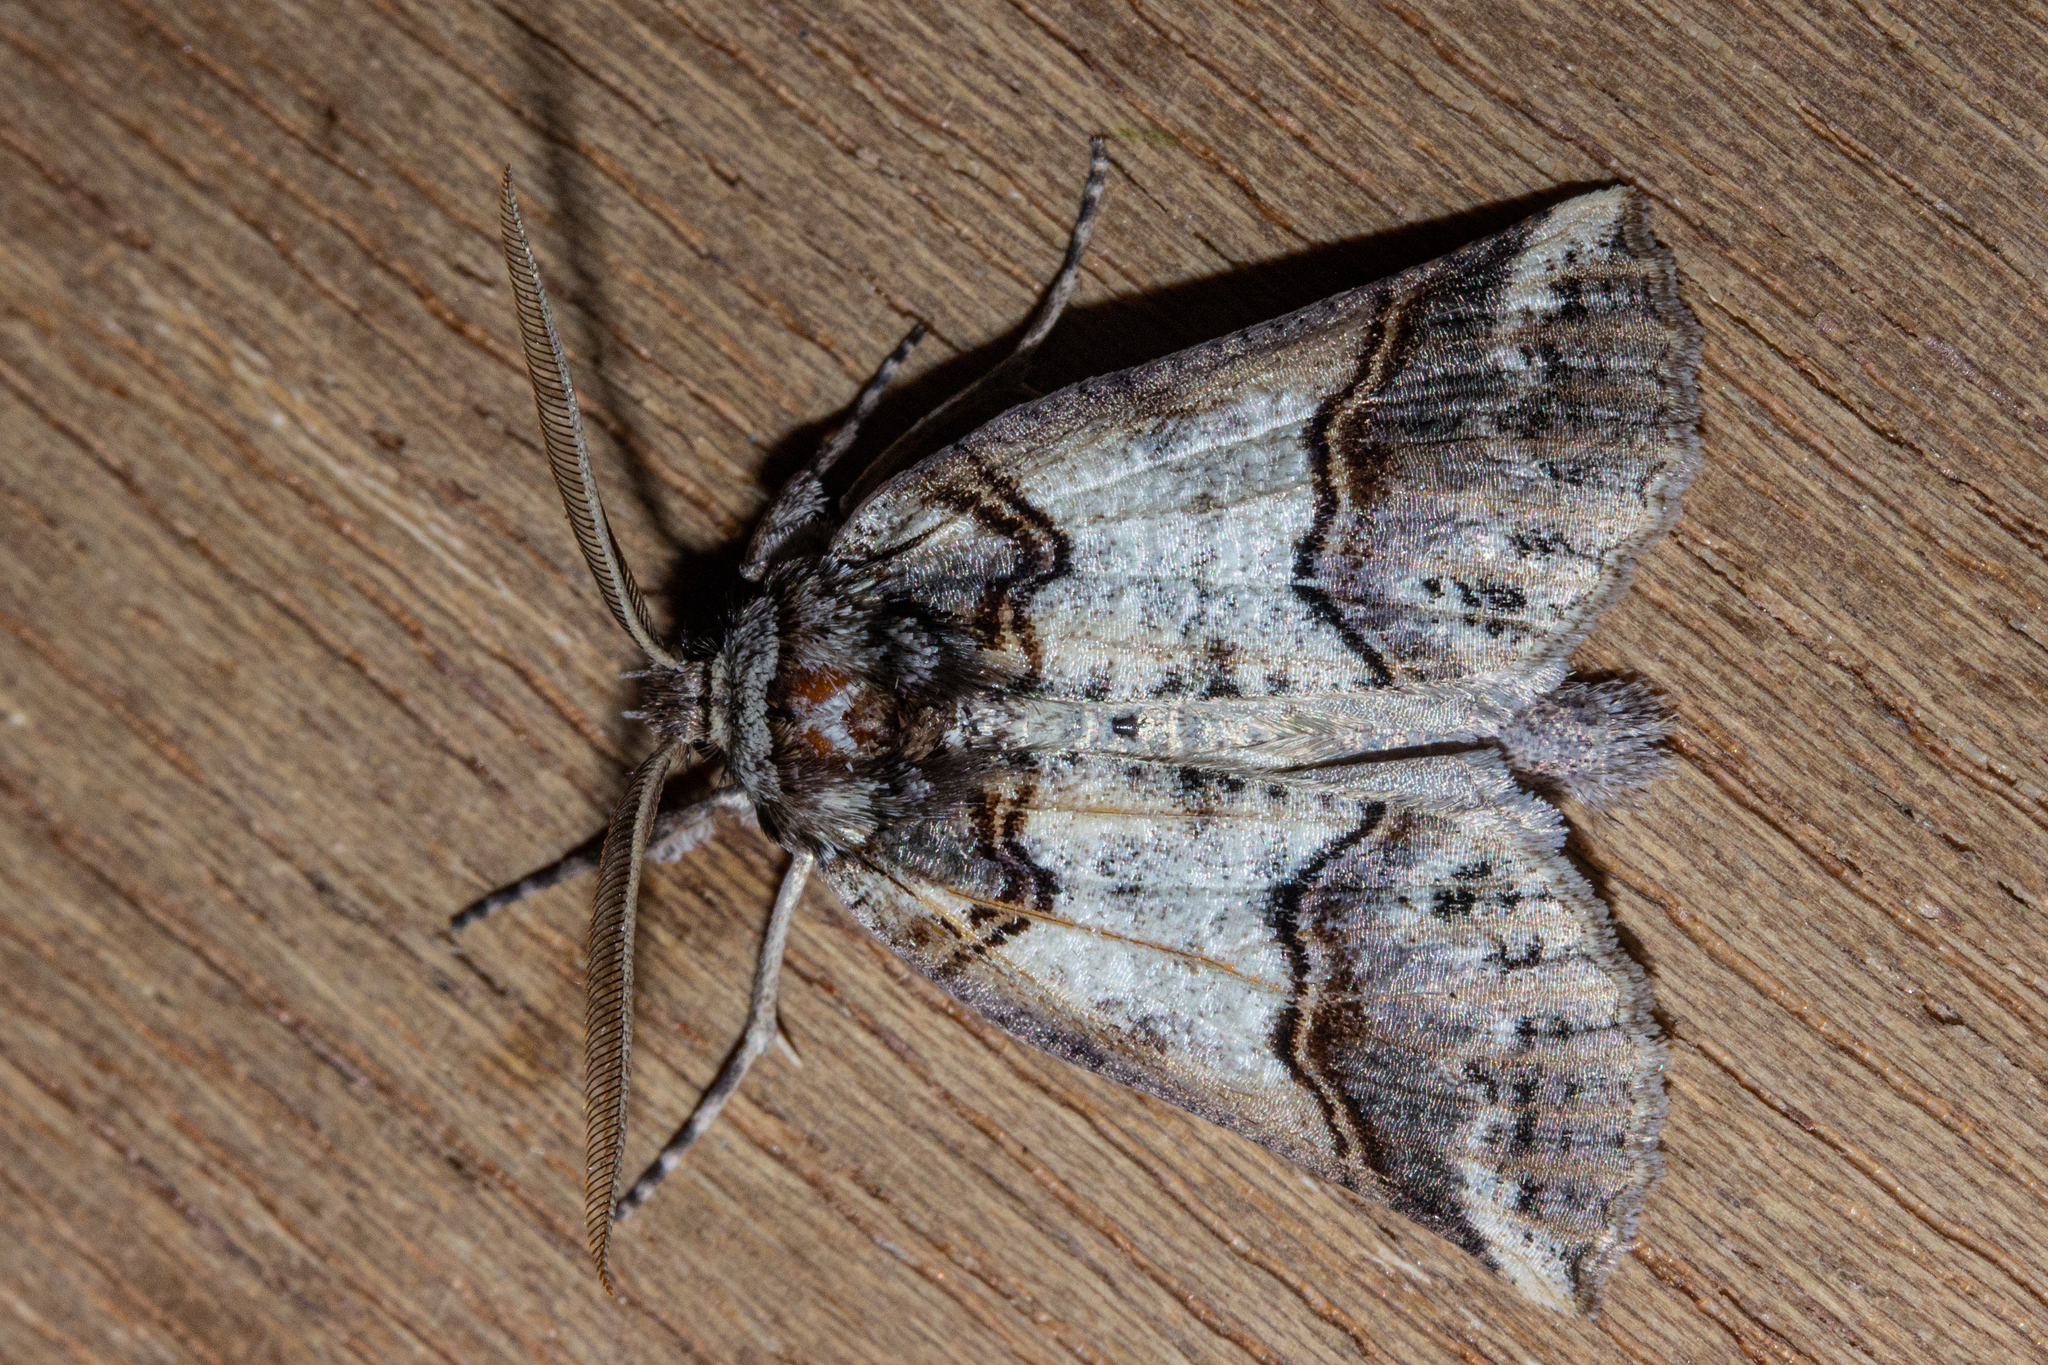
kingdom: Animalia
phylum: Arthropoda
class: Insecta
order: Lepidoptera
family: Geometridae
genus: Declana
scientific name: Declana
